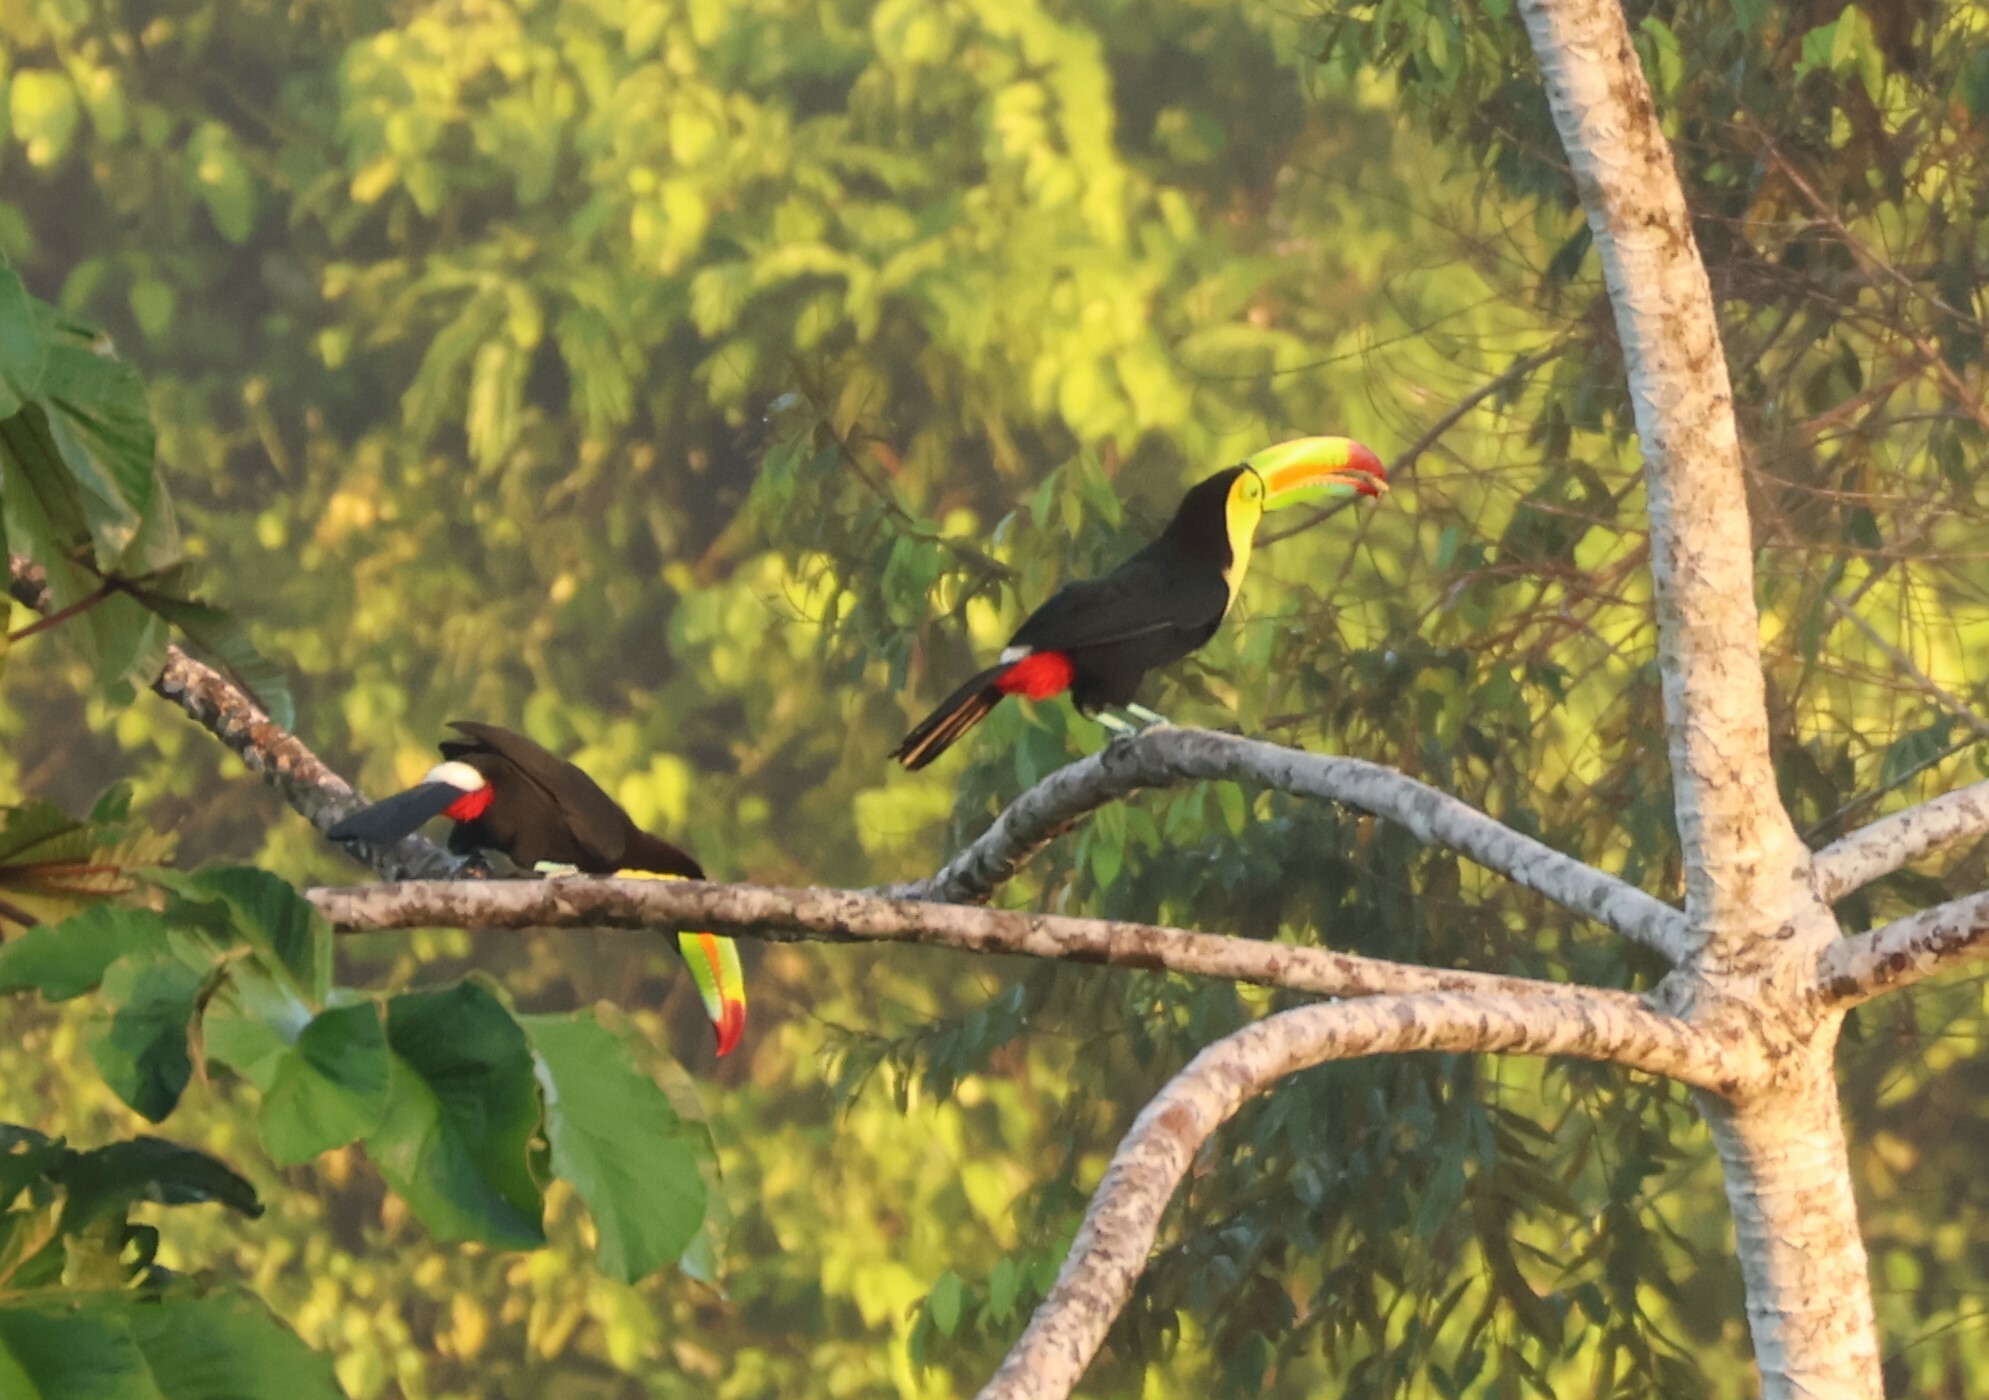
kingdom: Animalia
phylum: Chordata
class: Aves
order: Piciformes
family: Ramphastidae
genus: Ramphastos
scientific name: Ramphastos sulfuratus
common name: Keel-billed toucan
